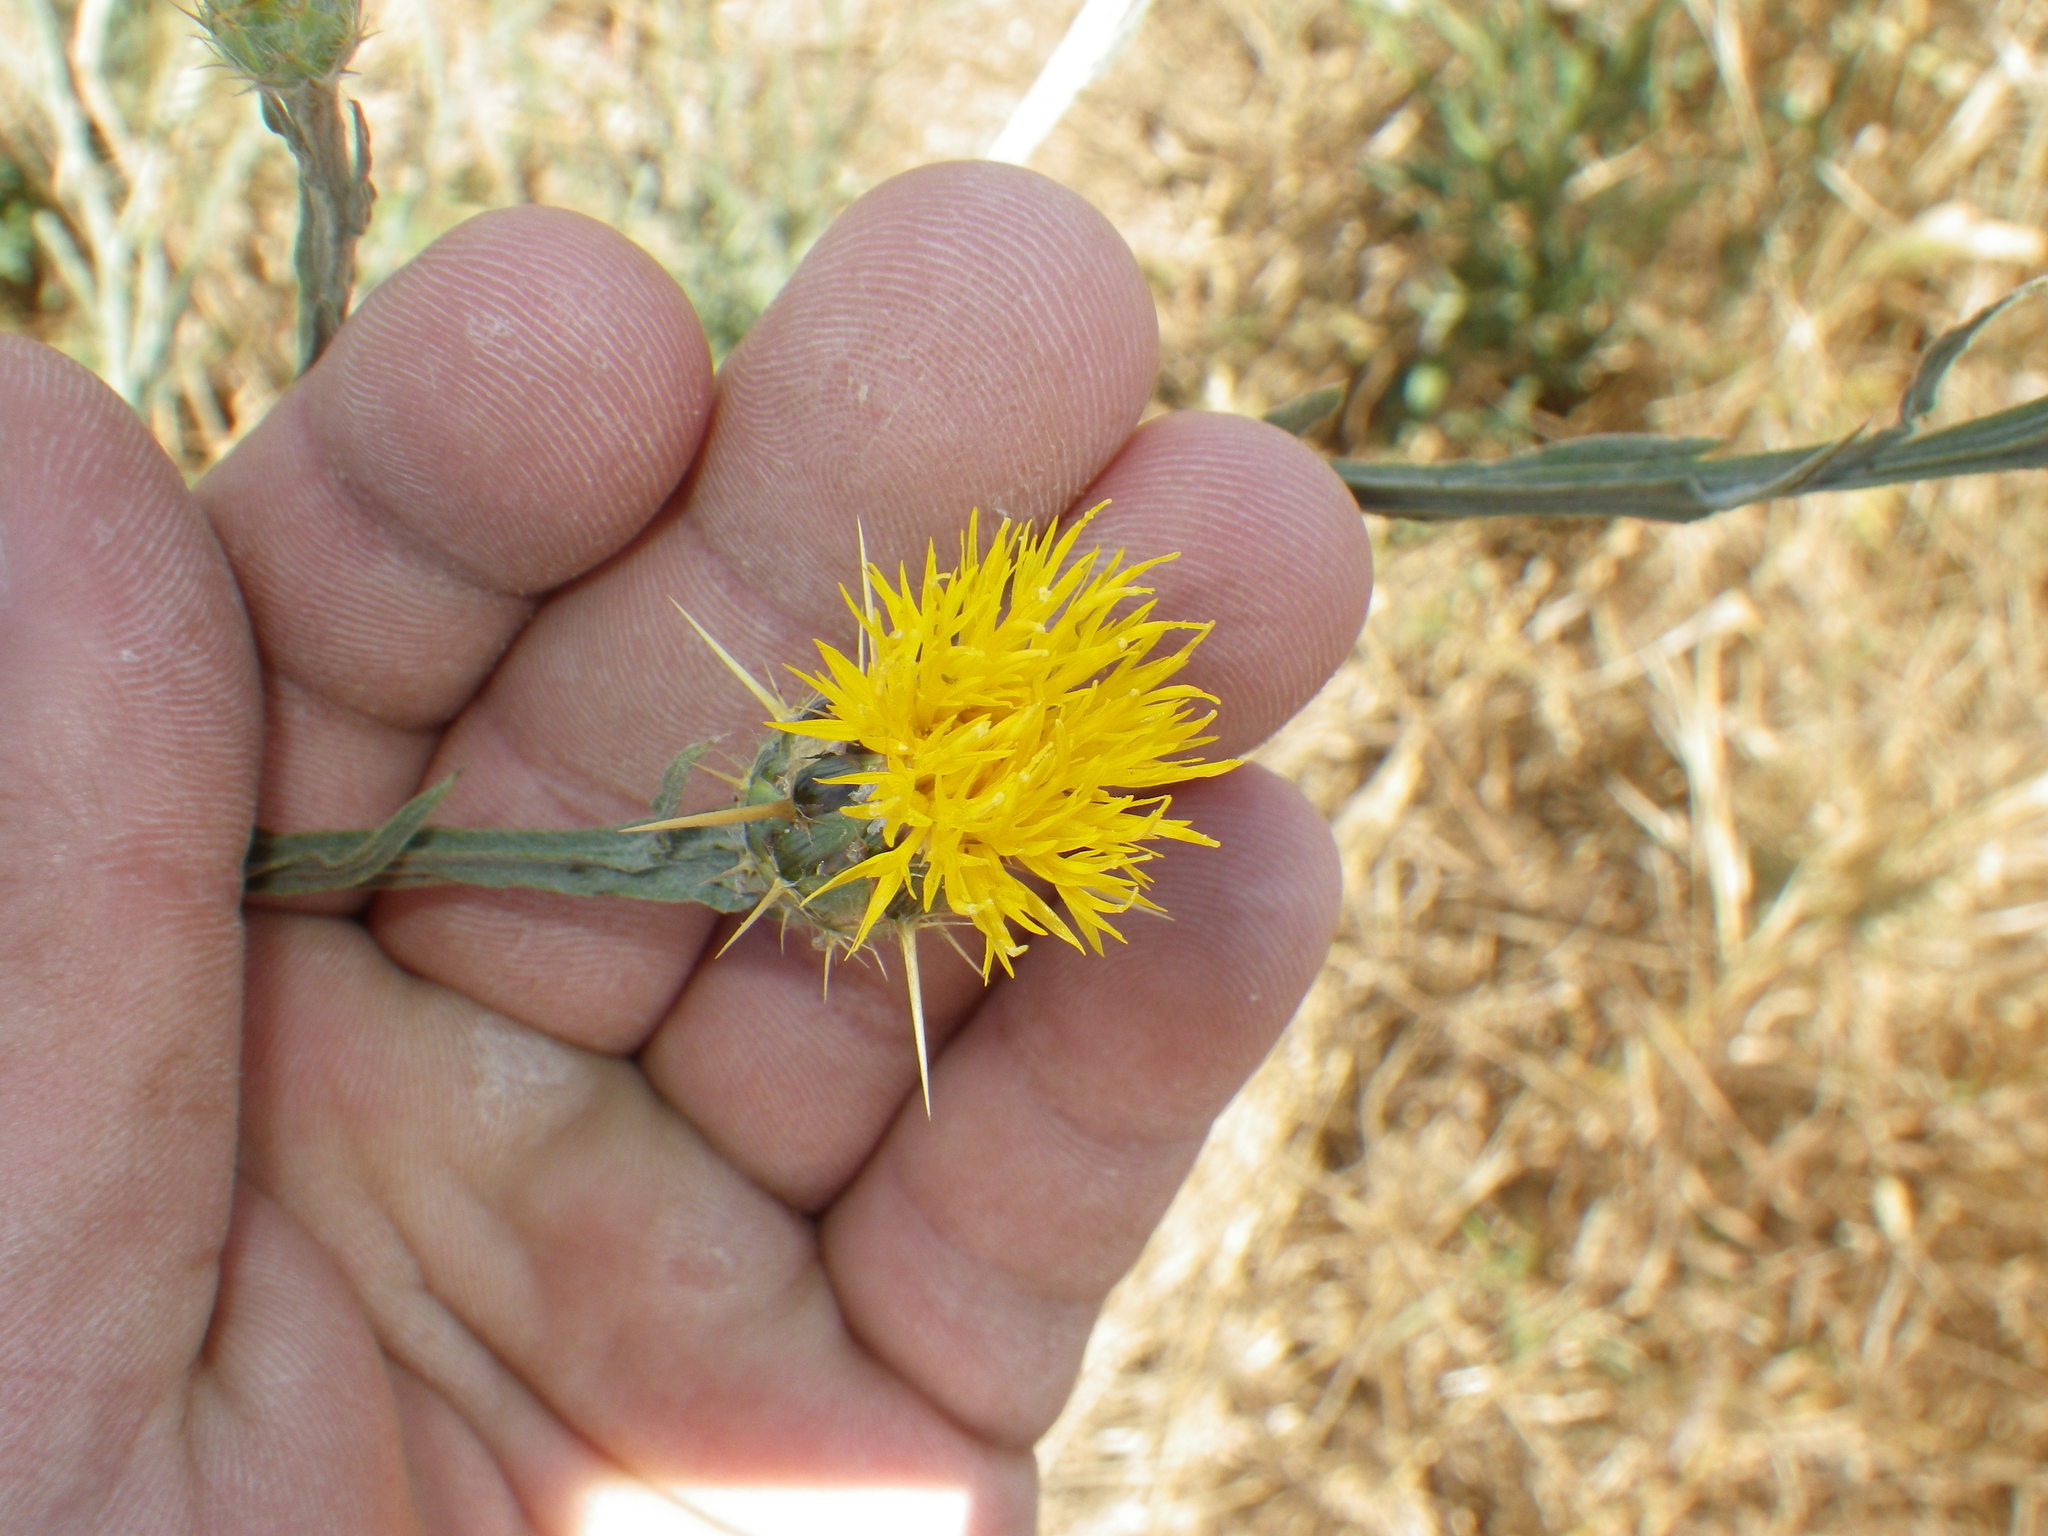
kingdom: Plantae
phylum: Tracheophyta
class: Magnoliopsida
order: Asterales
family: Asteraceae
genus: Centaurea
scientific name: Centaurea solstitialis
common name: Yellow star-thistle
